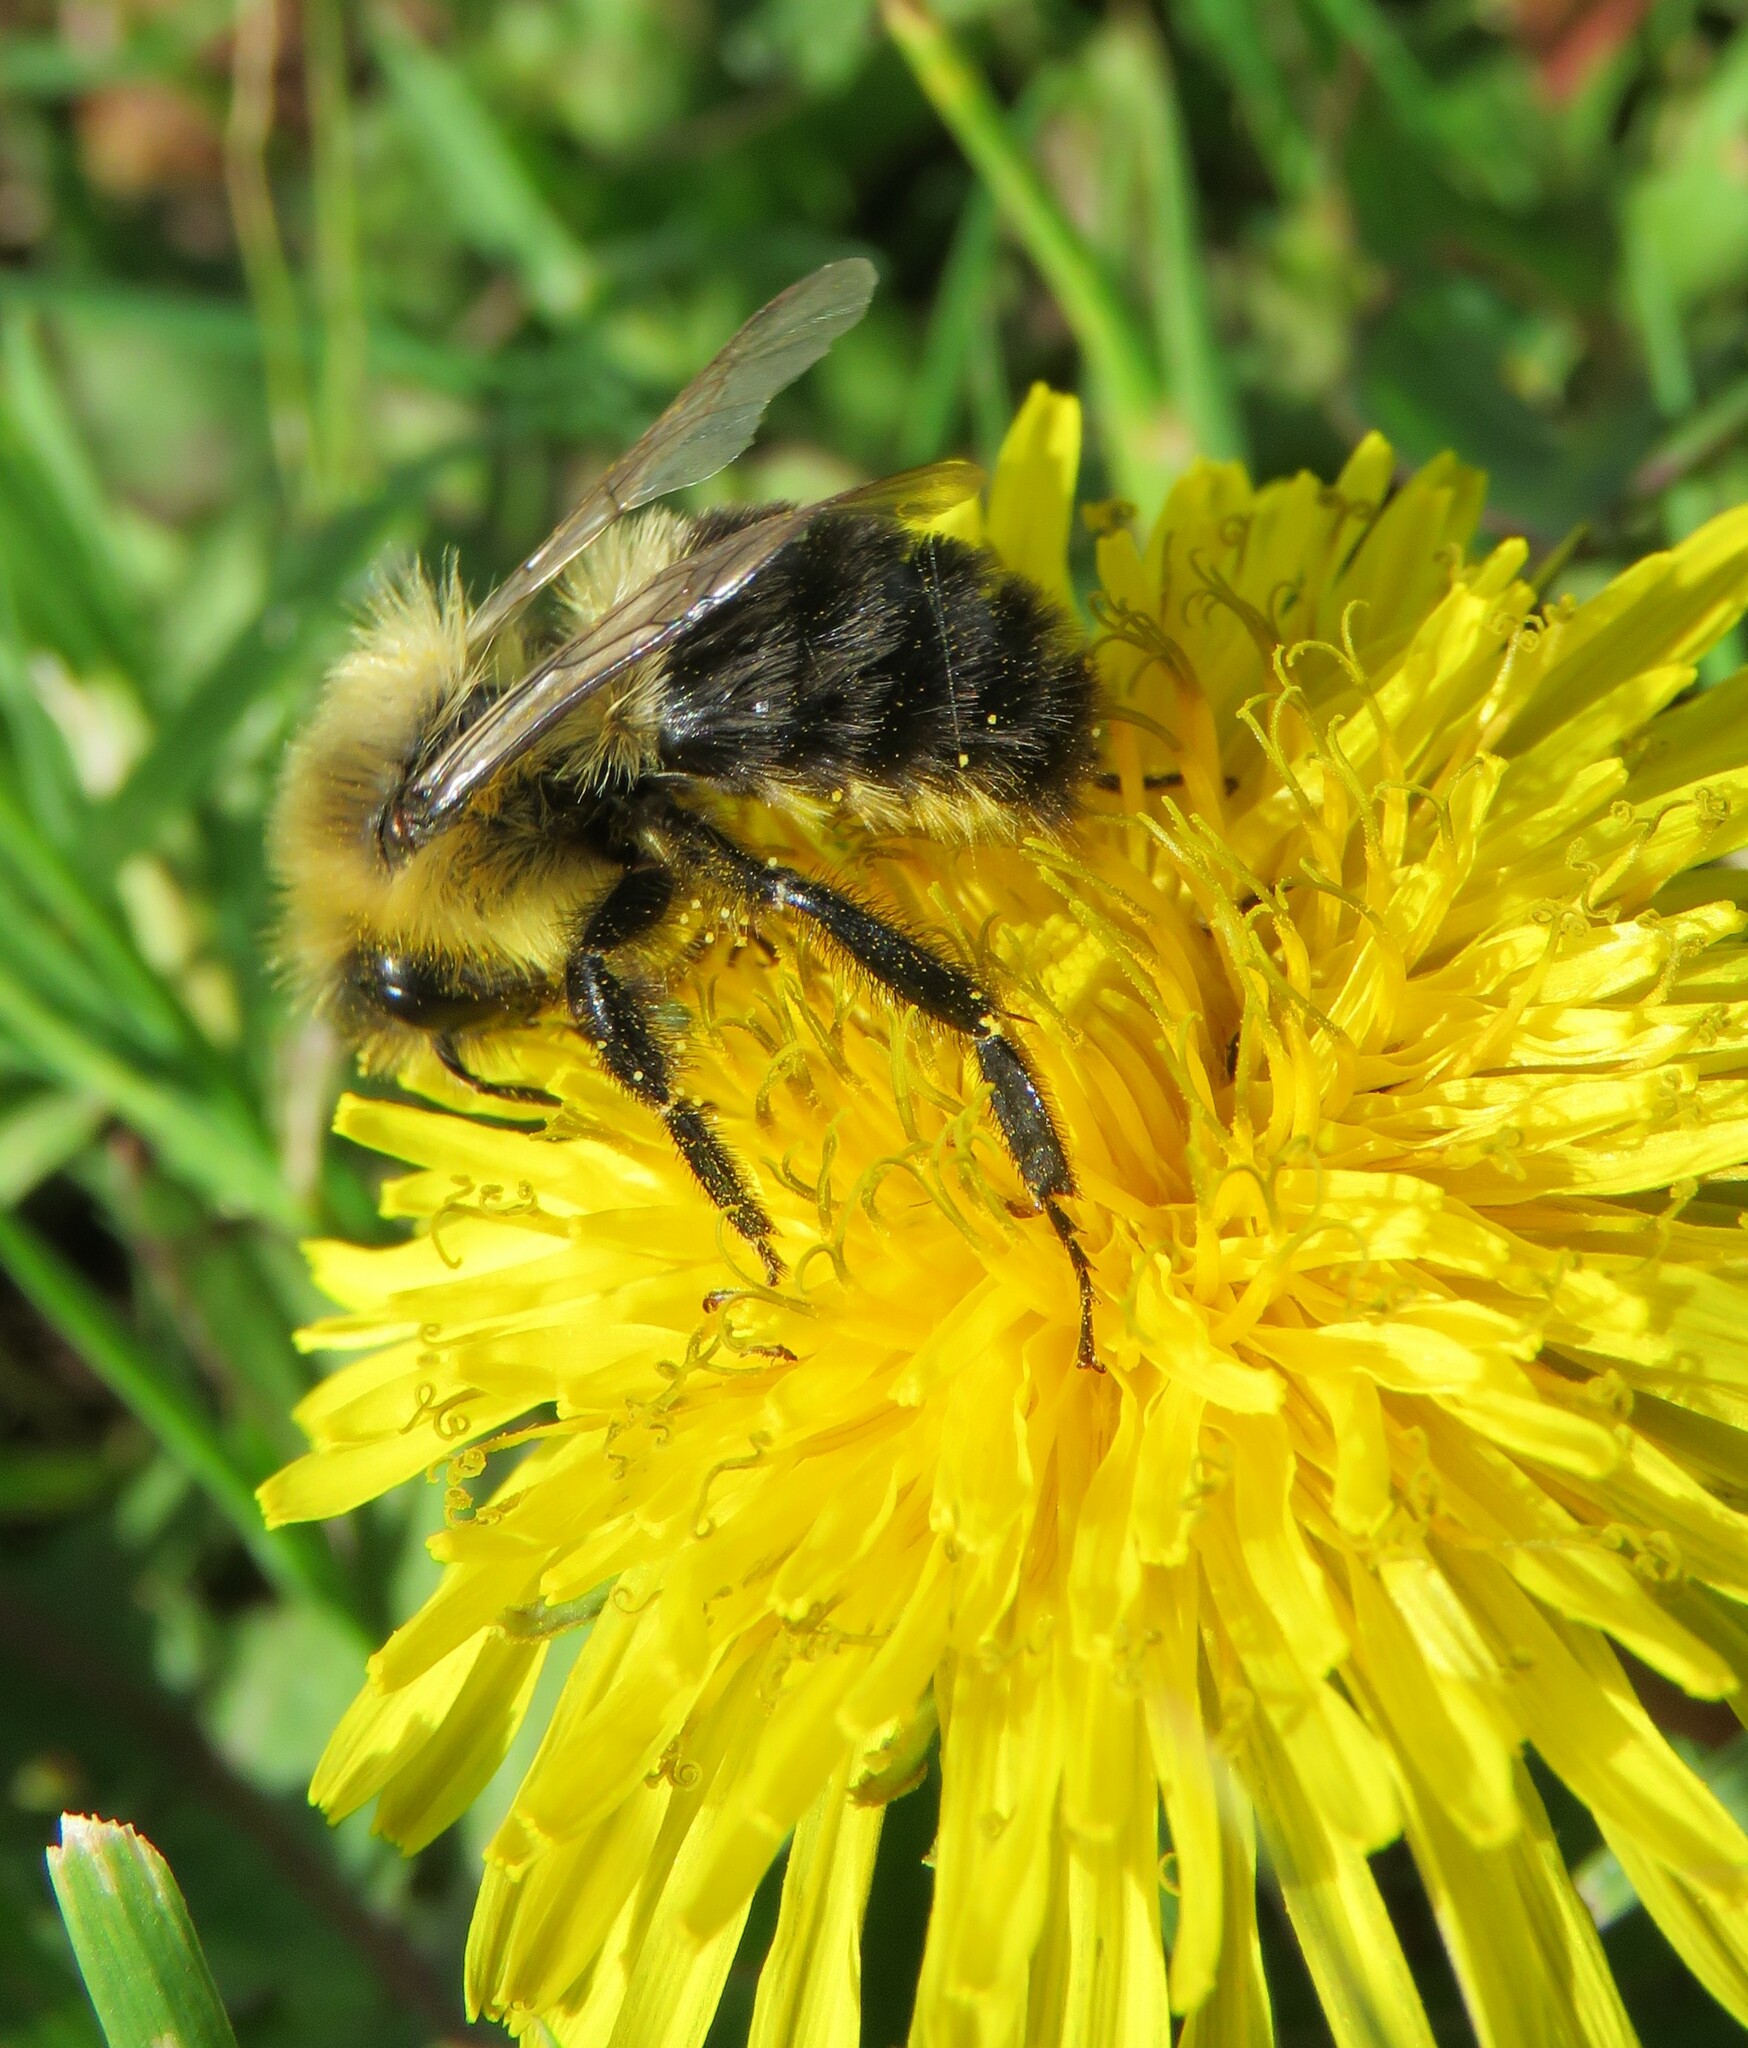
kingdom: Animalia
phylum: Arthropoda
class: Insecta
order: Hymenoptera
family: Apidae
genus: Bombus
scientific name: Bombus impatiens
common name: Common eastern bumble bee
